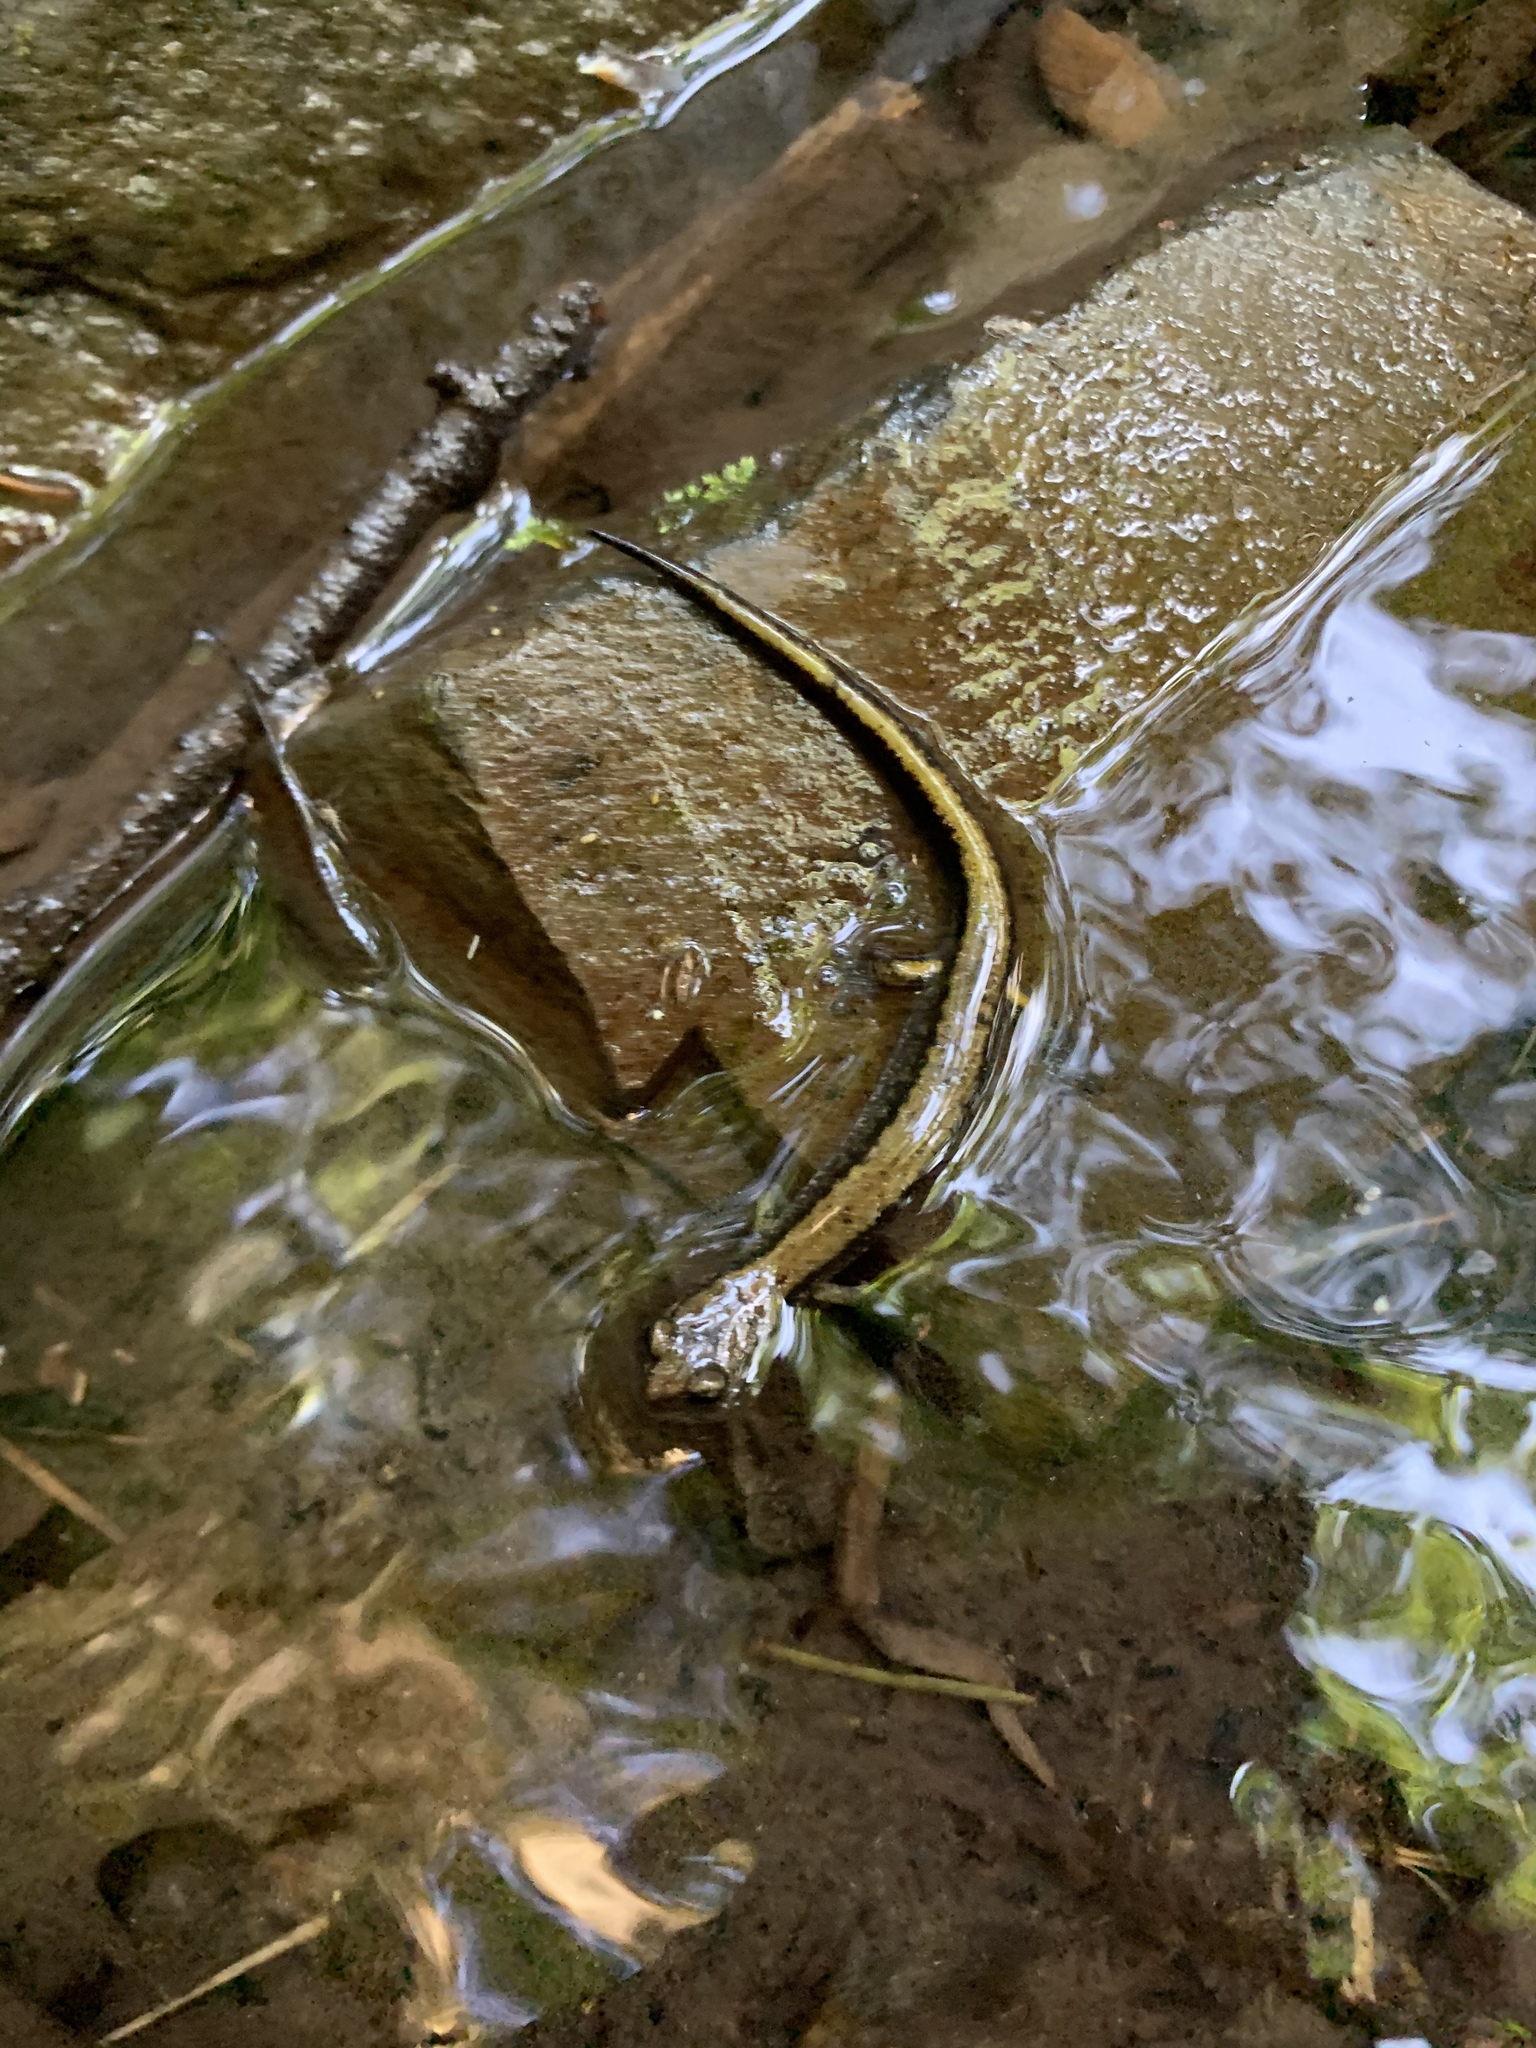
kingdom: Animalia
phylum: Chordata
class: Amphibia
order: Caudata
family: Plethodontidae
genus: Plethodon
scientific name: Plethodon dunni
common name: Dunn's salamander
